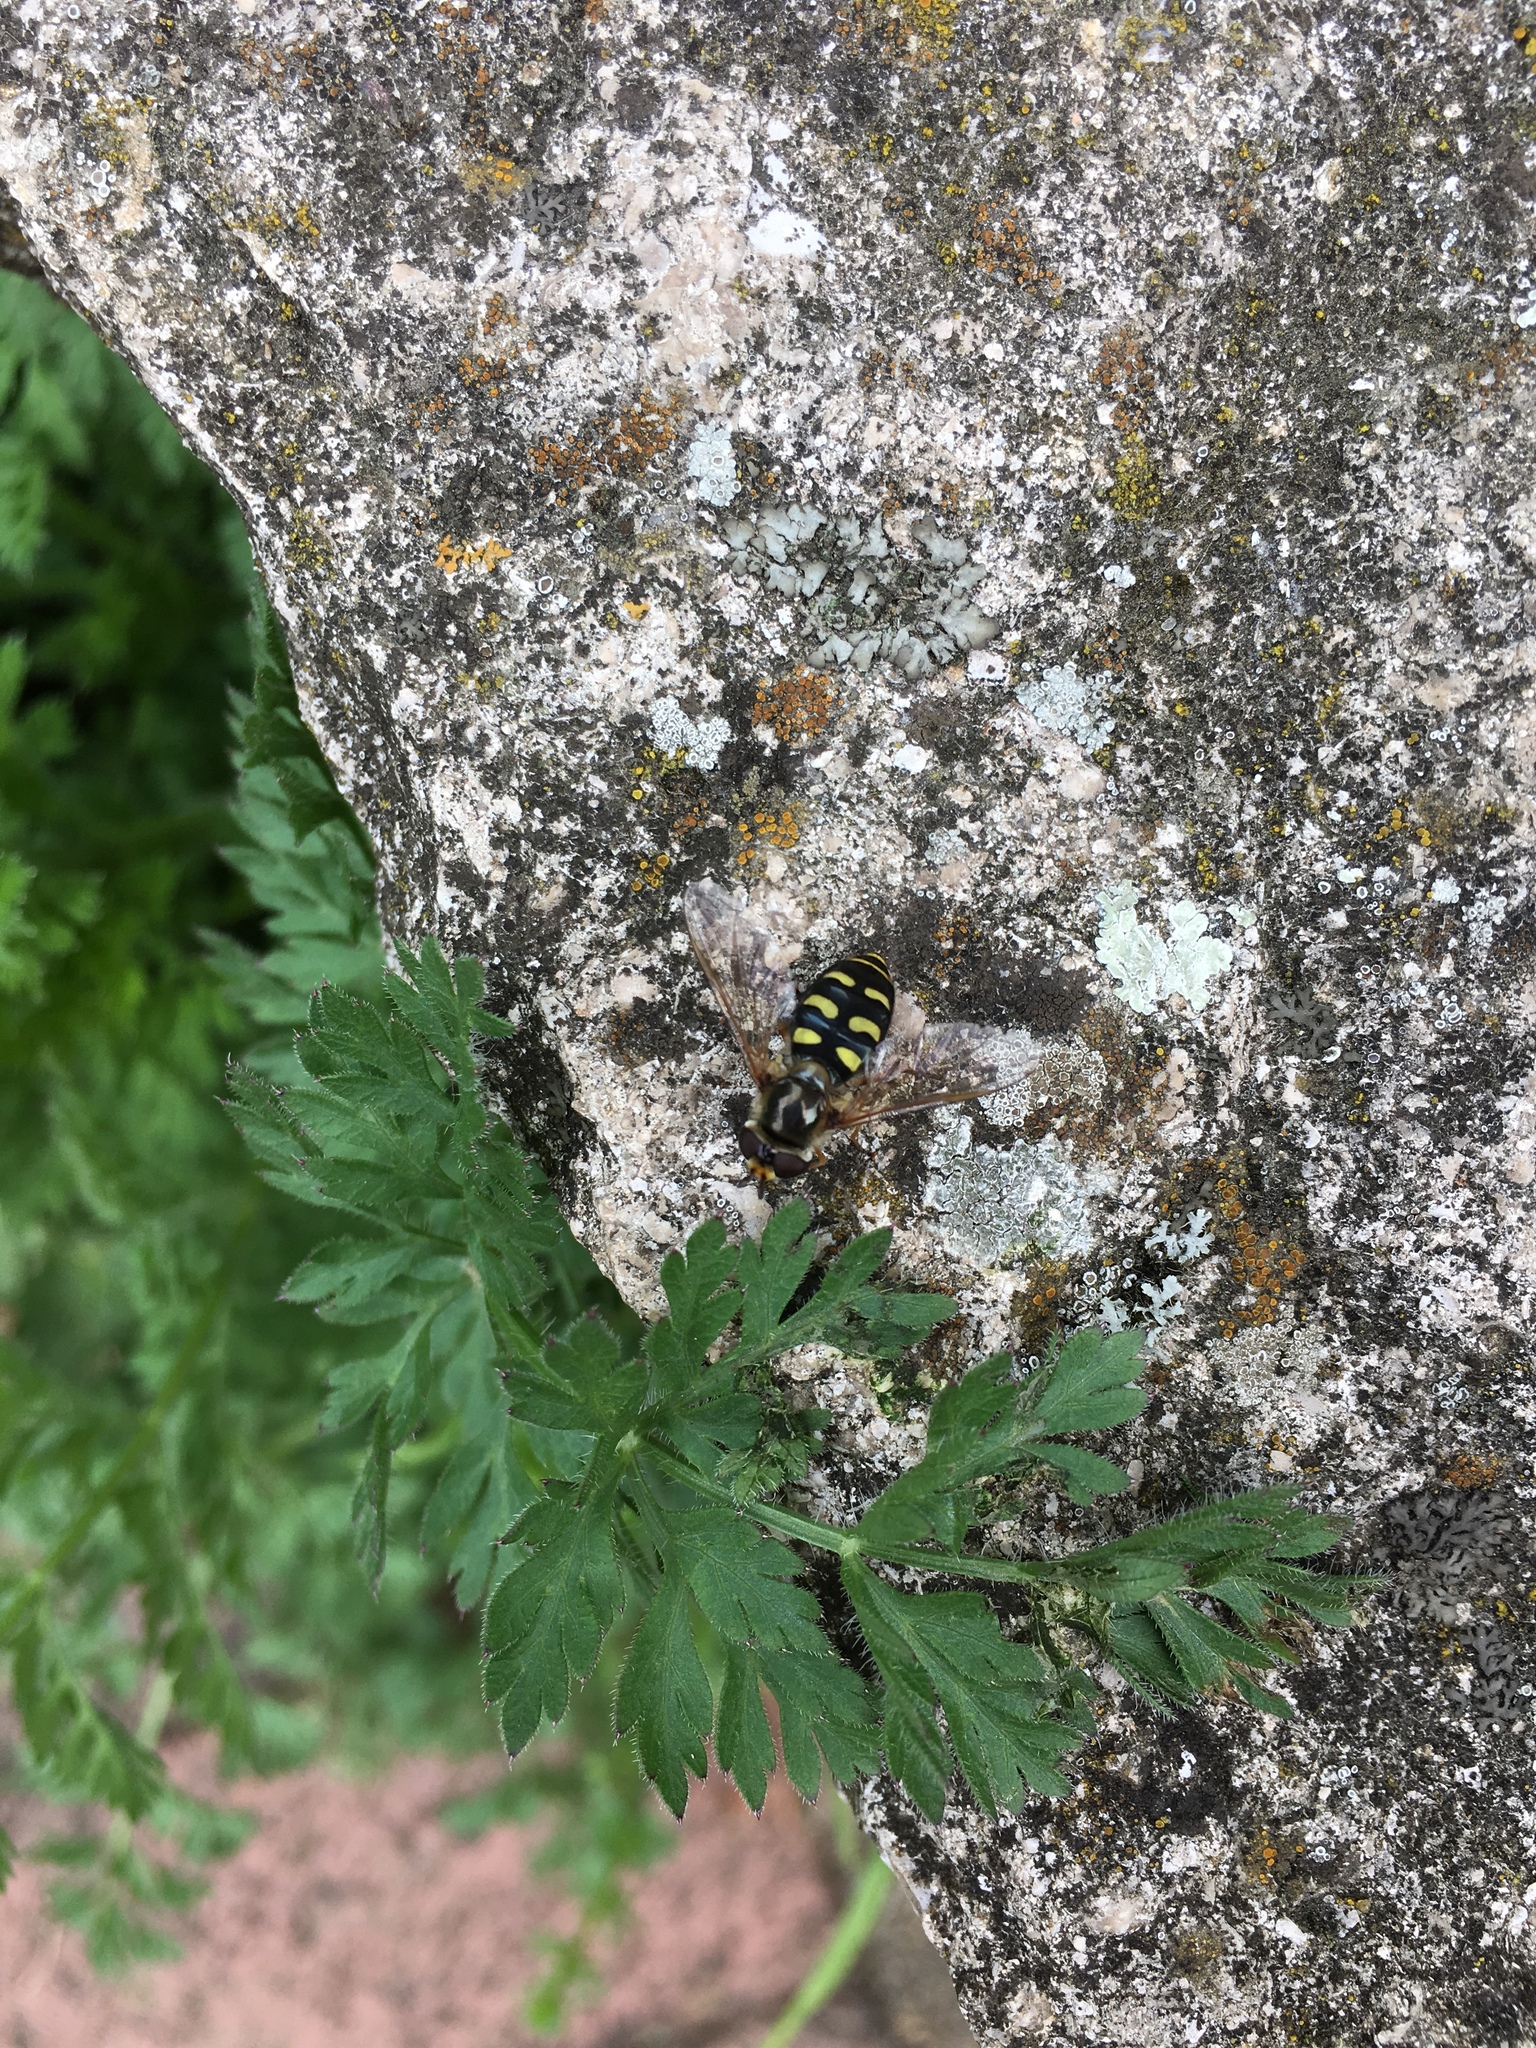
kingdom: Animalia
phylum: Arthropoda
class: Insecta
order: Diptera
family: Syrphidae
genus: Eupeodes
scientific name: Eupeodes
